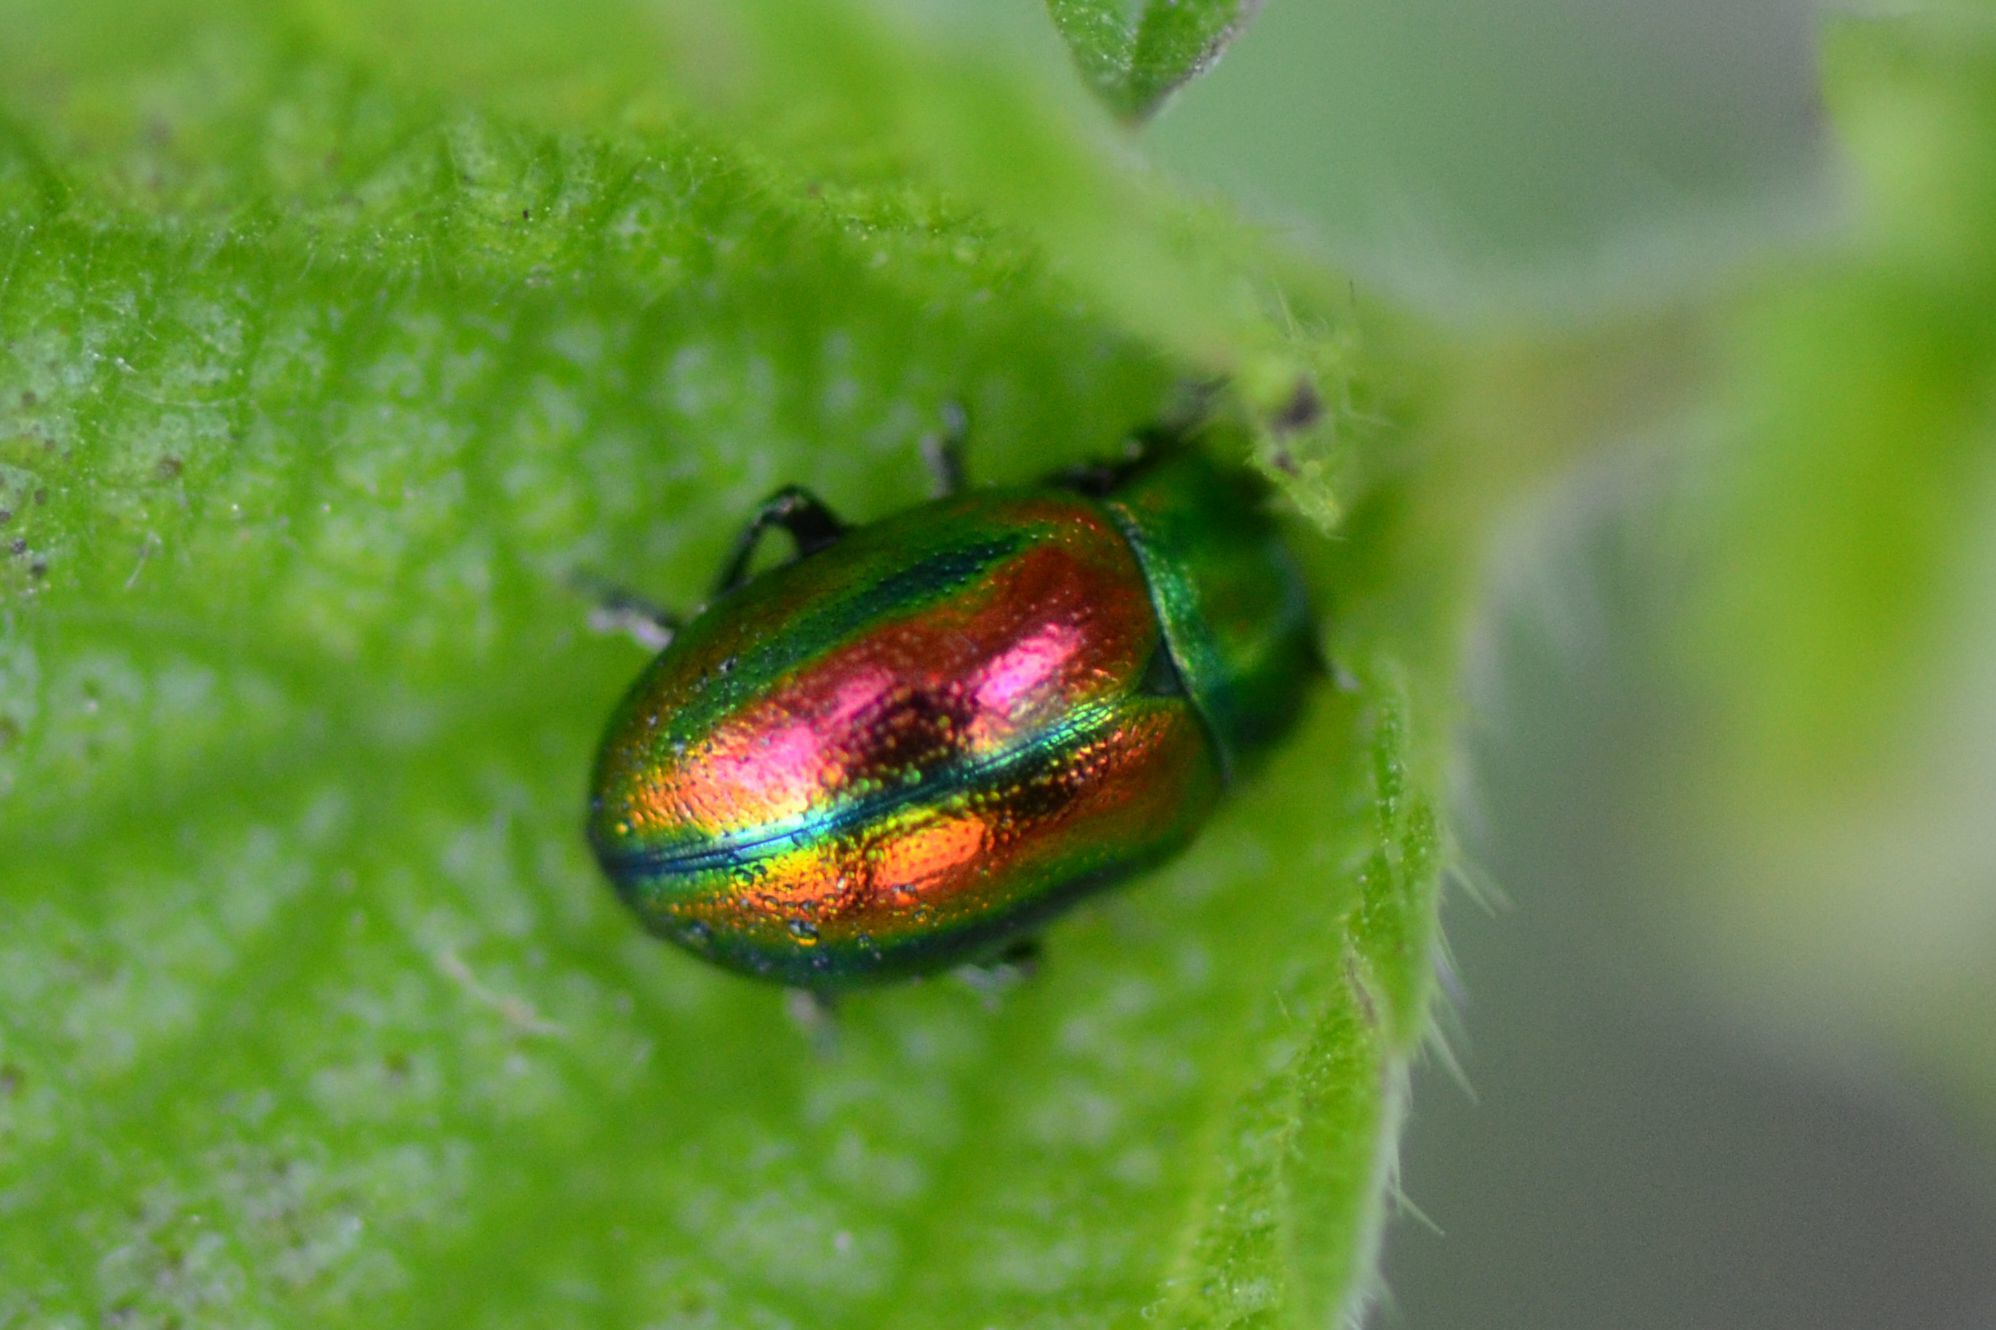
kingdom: Animalia
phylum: Arthropoda
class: Insecta
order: Coleoptera
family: Chrysomelidae
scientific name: Chrysomelidae
